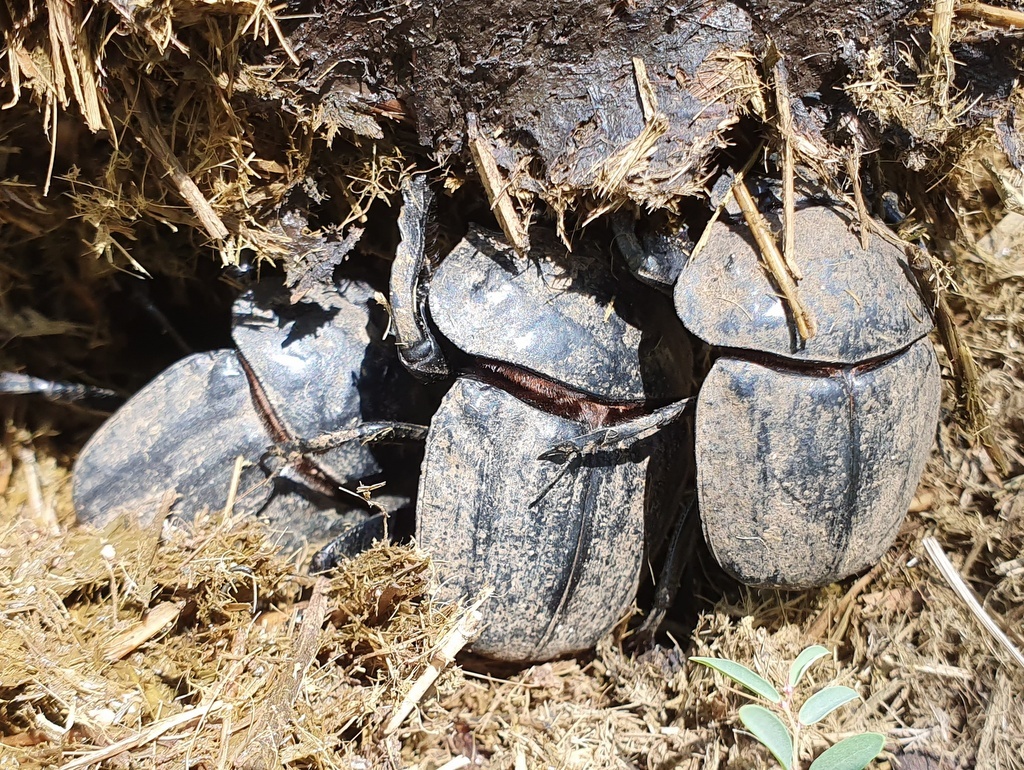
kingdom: Animalia
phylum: Arthropoda
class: Insecta
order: Coleoptera
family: Scarabaeidae
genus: Pachylomera
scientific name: Pachylomera femoralis
